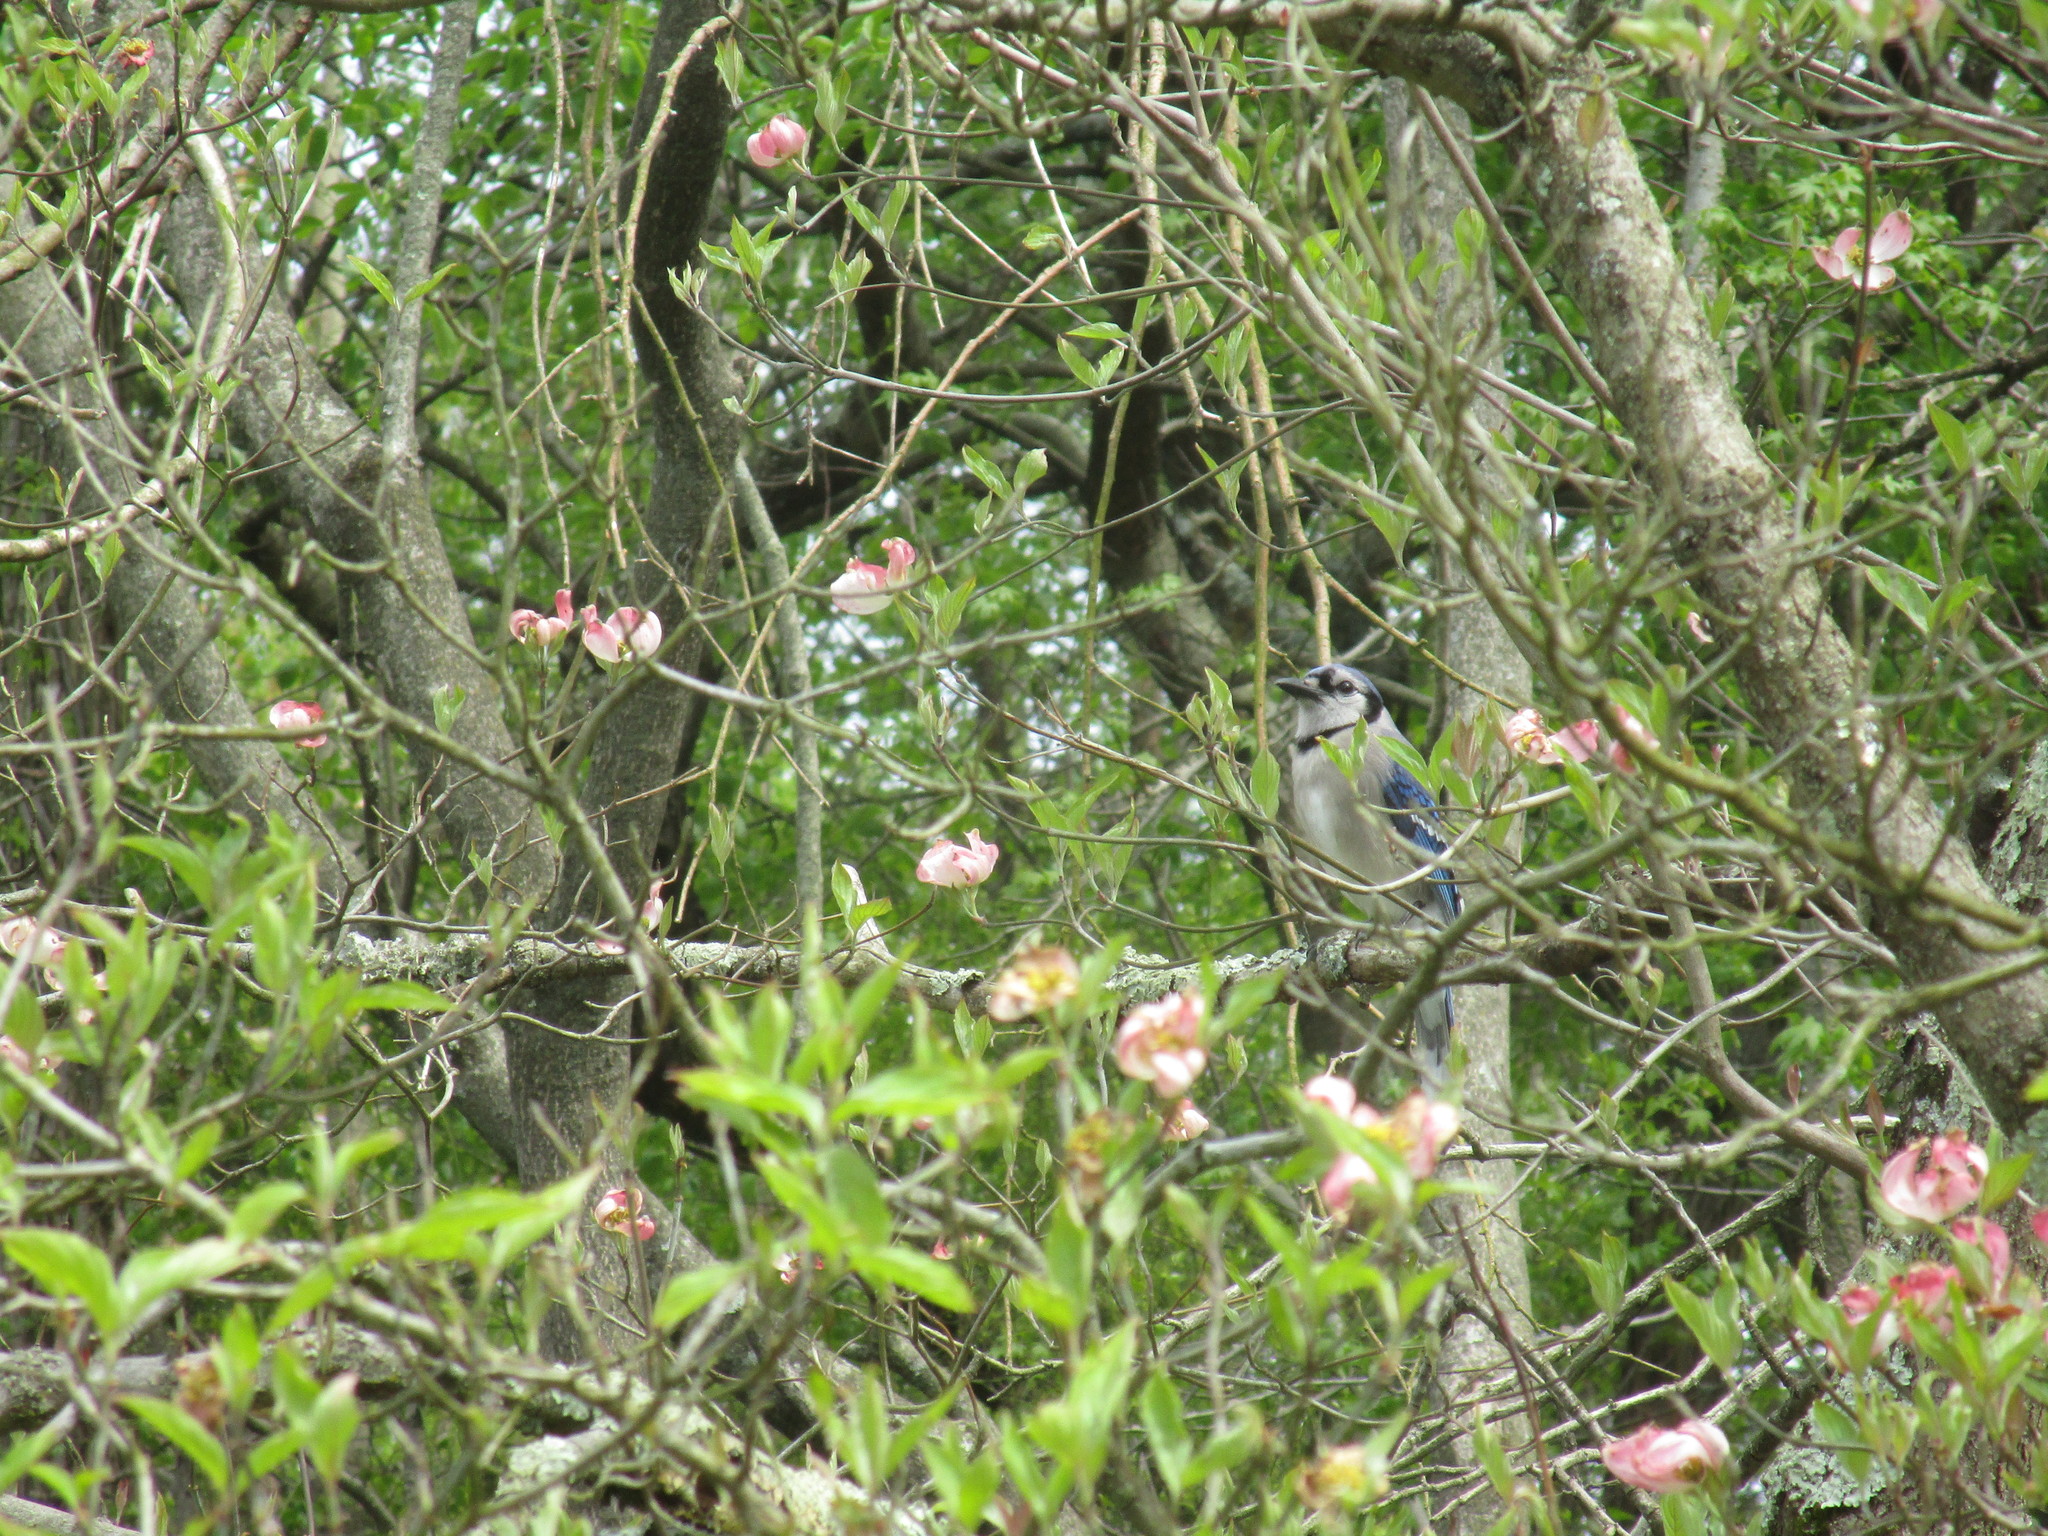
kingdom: Animalia
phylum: Chordata
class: Aves
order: Passeriformes
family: Corvidae
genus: Cyanocitta
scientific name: Cyanocitta cristata
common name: Blue jay
